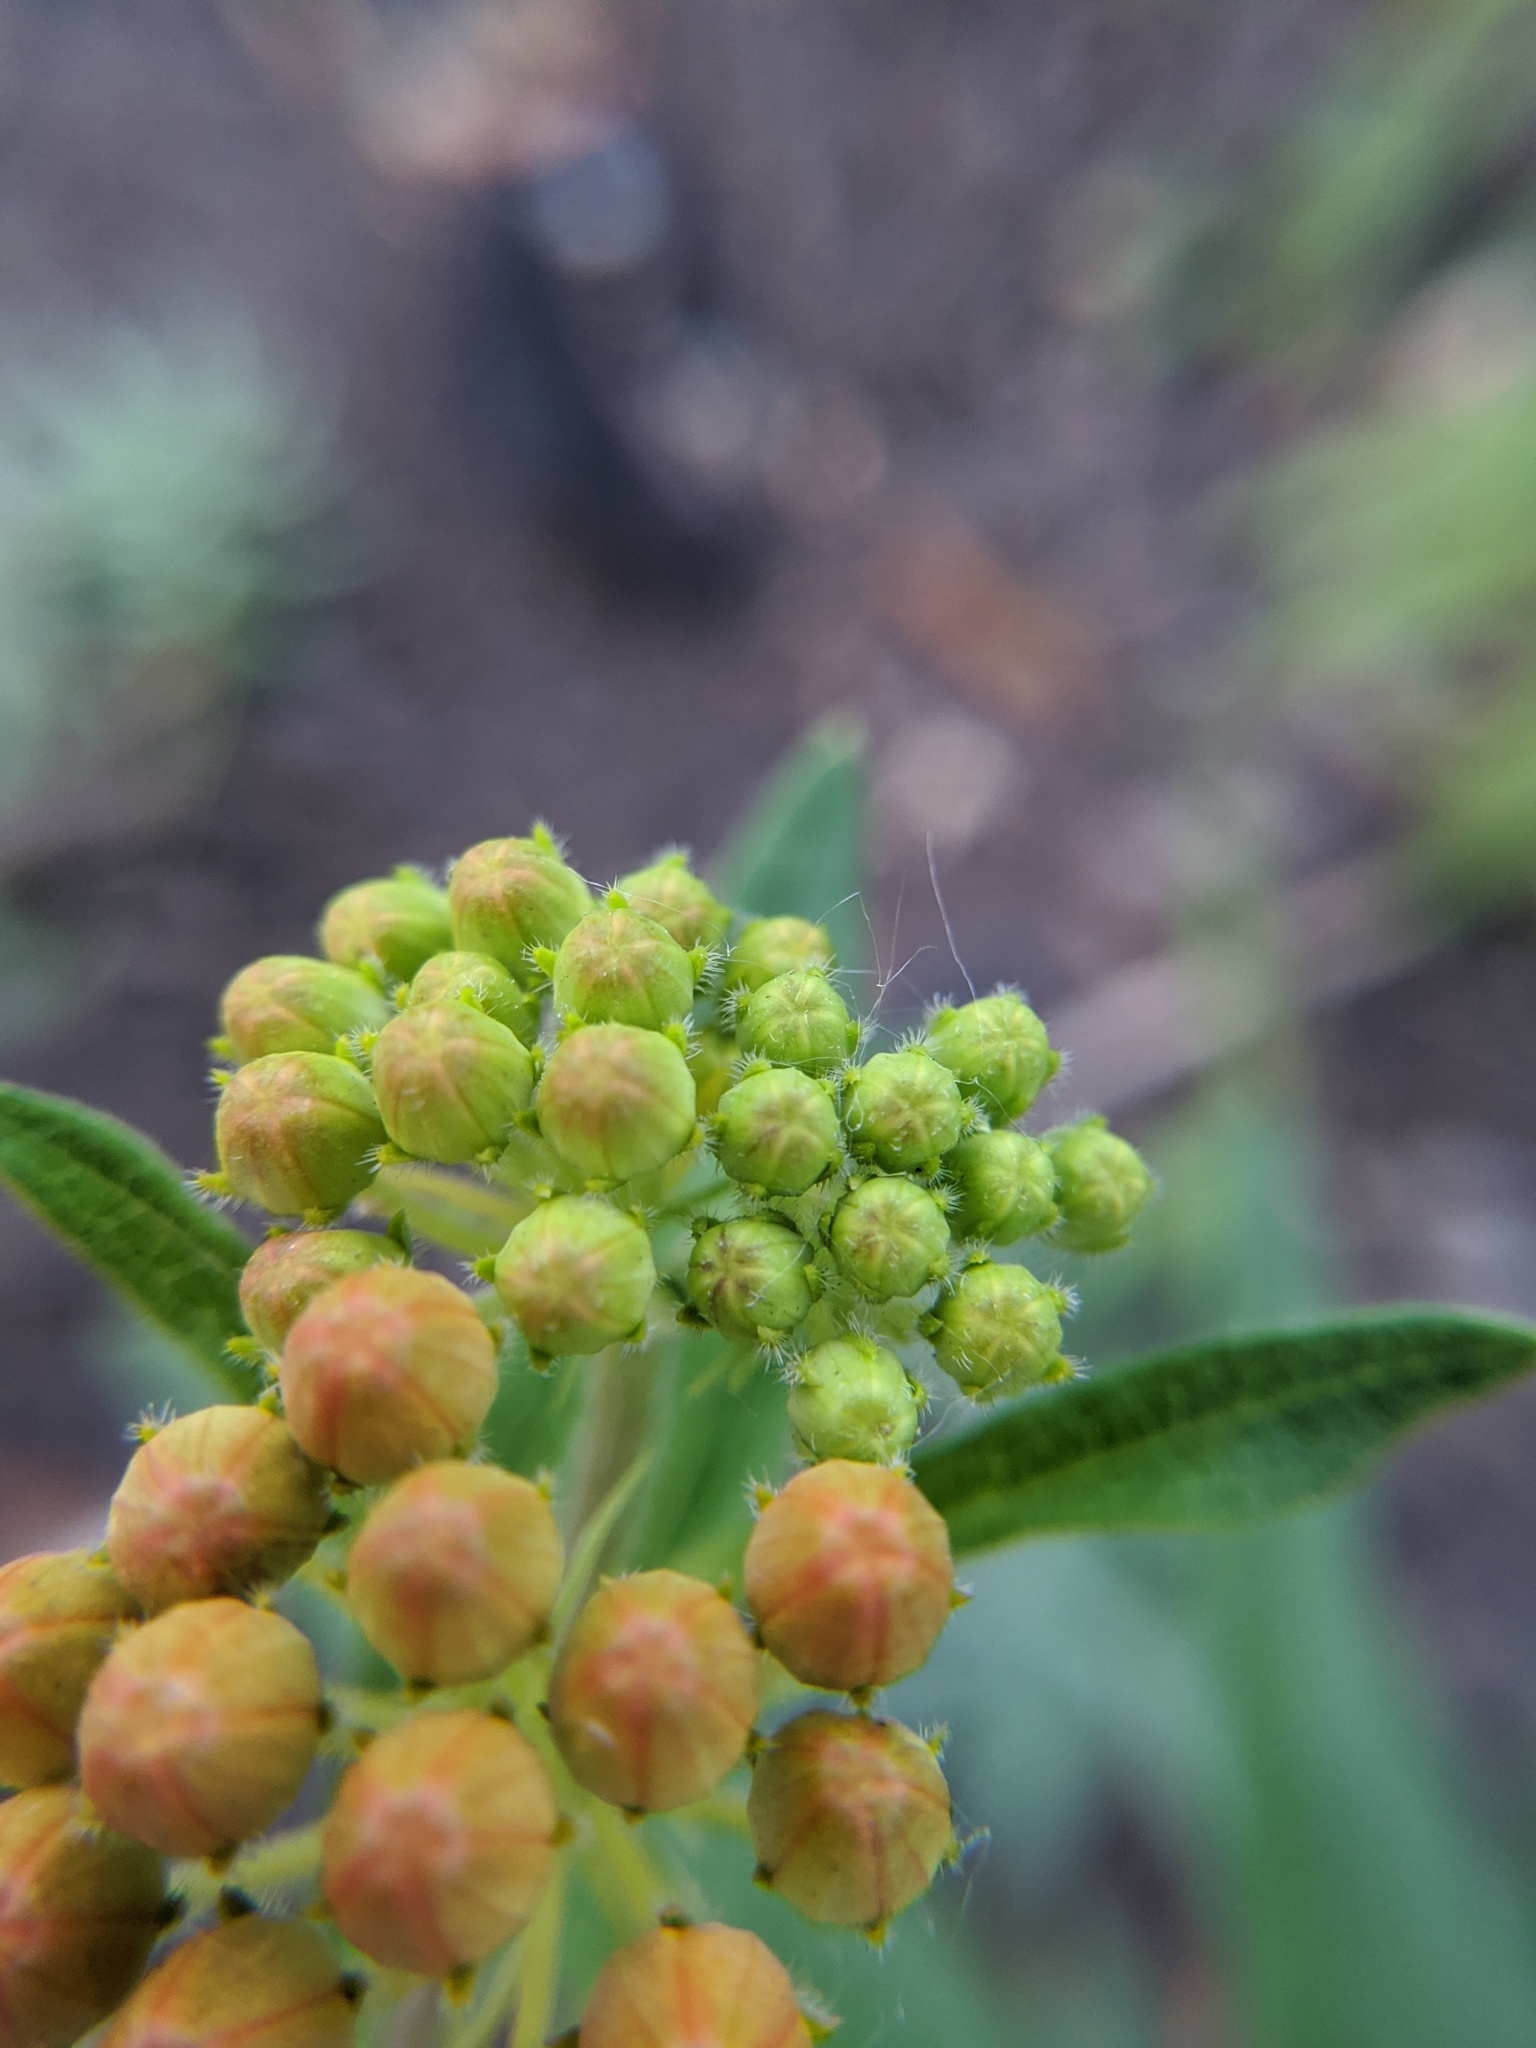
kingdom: Plantae
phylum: Tracheophyta
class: Magnoliopsida
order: Gentianales
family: Apocynaceae
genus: Asclepias
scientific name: Asclepias tuberosa
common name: Butterfly milkweed
